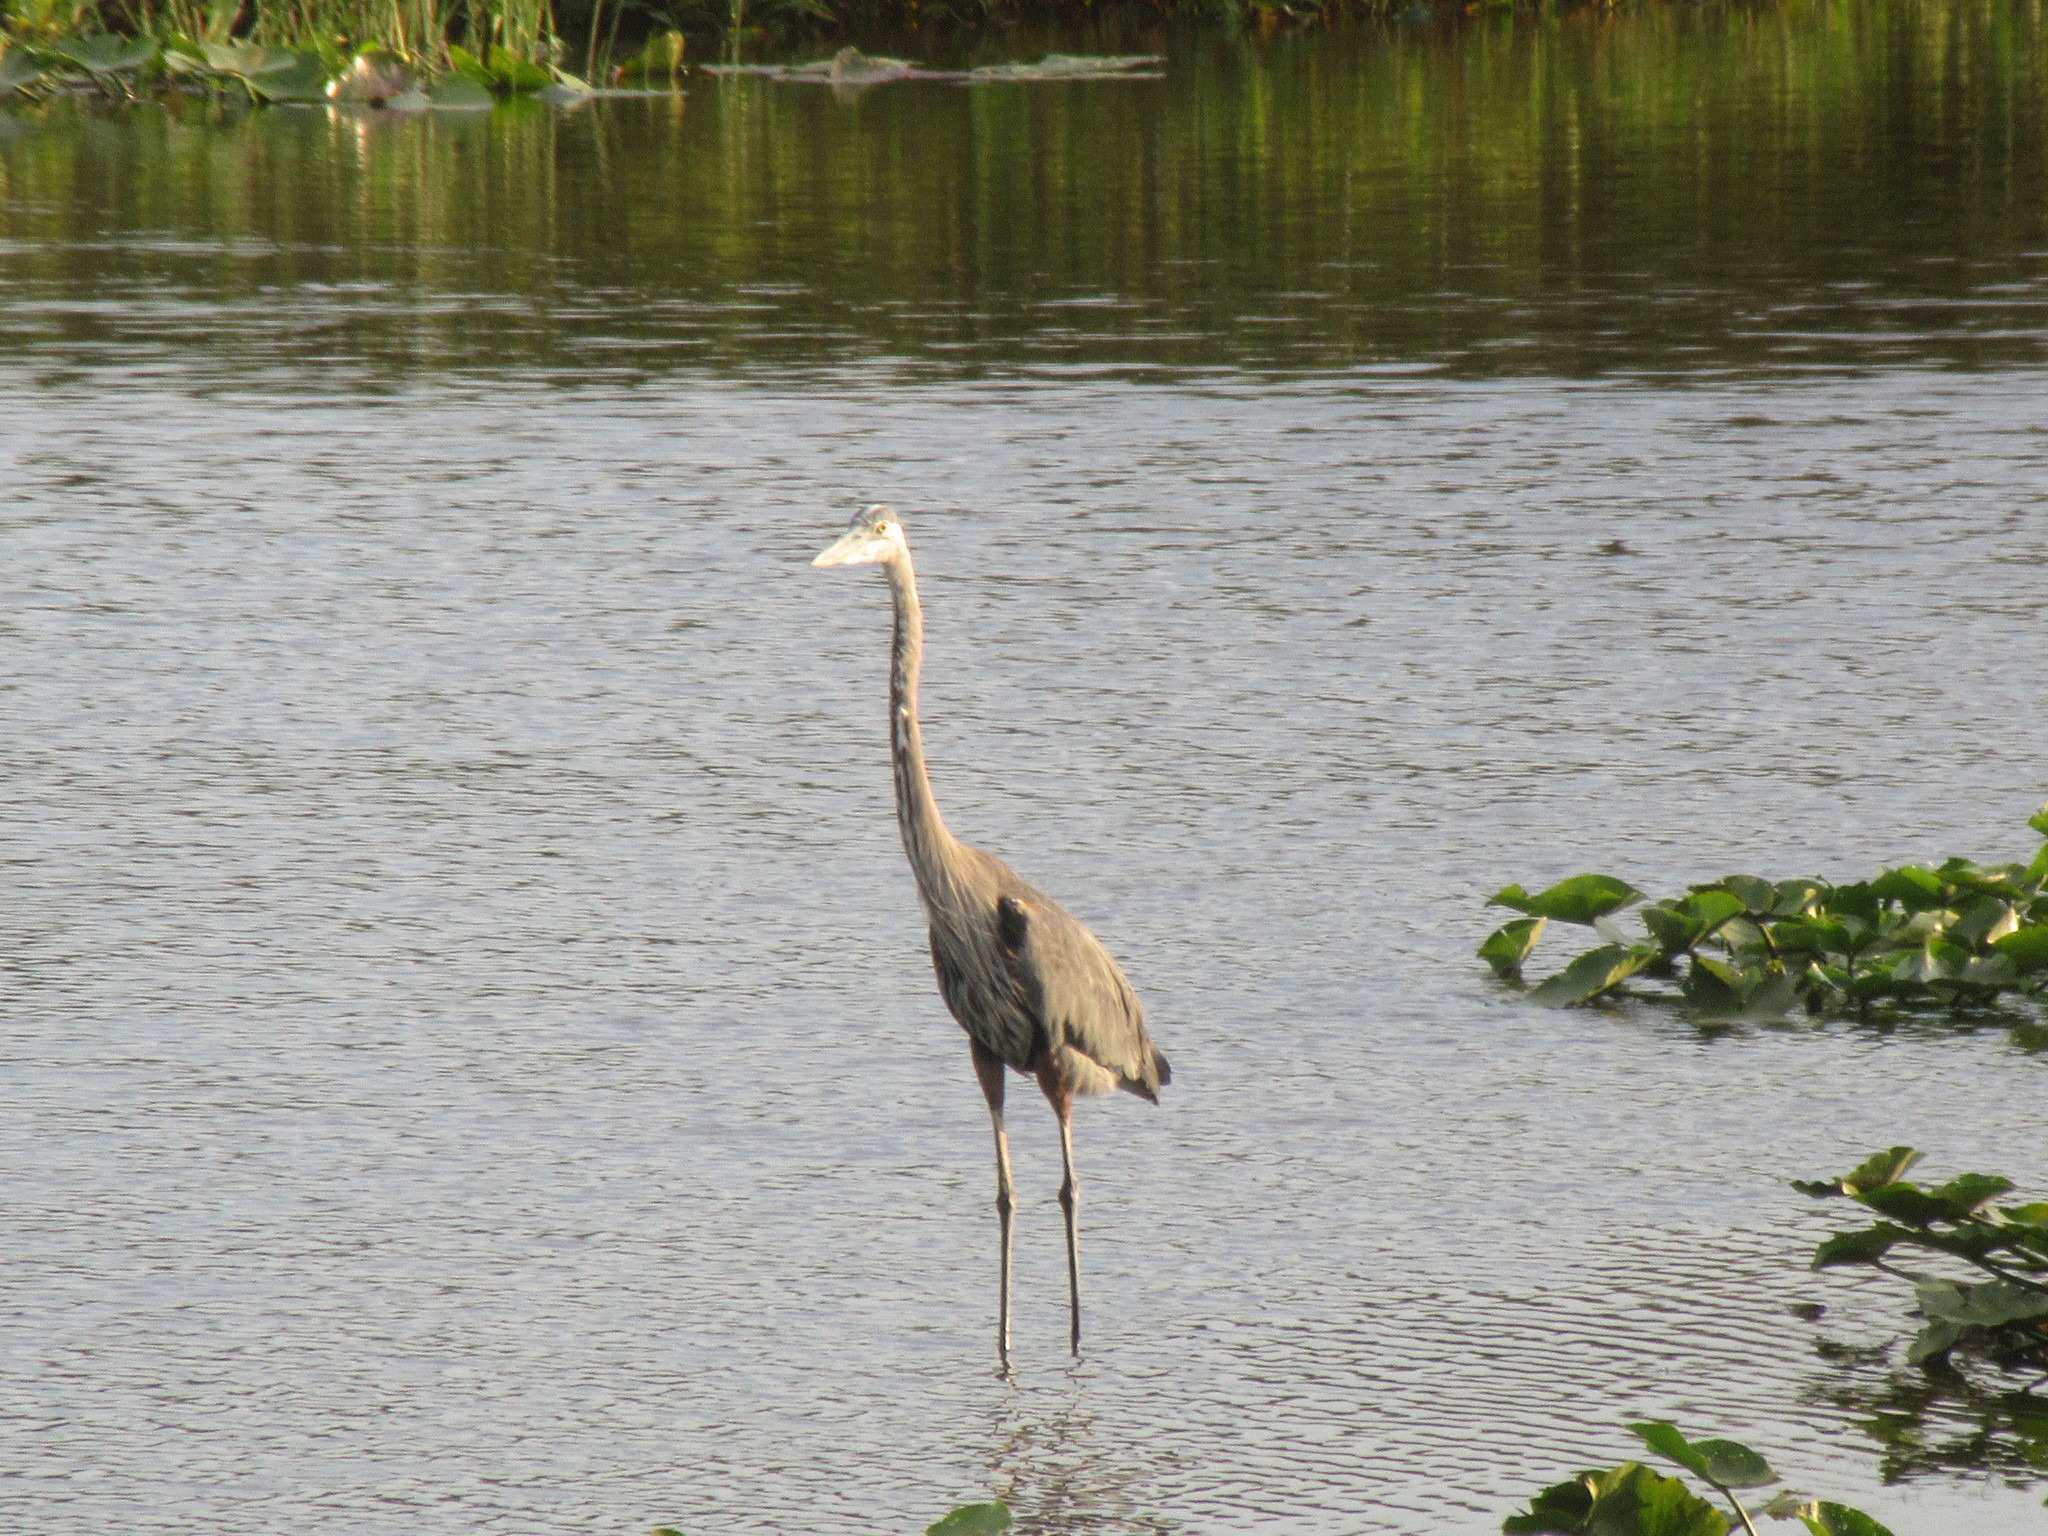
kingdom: Animalia
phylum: Chordata
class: Aves
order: Pelecaniformes
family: Ardeidae
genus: Ardea
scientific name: Ardea herodias
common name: Great blue heron
